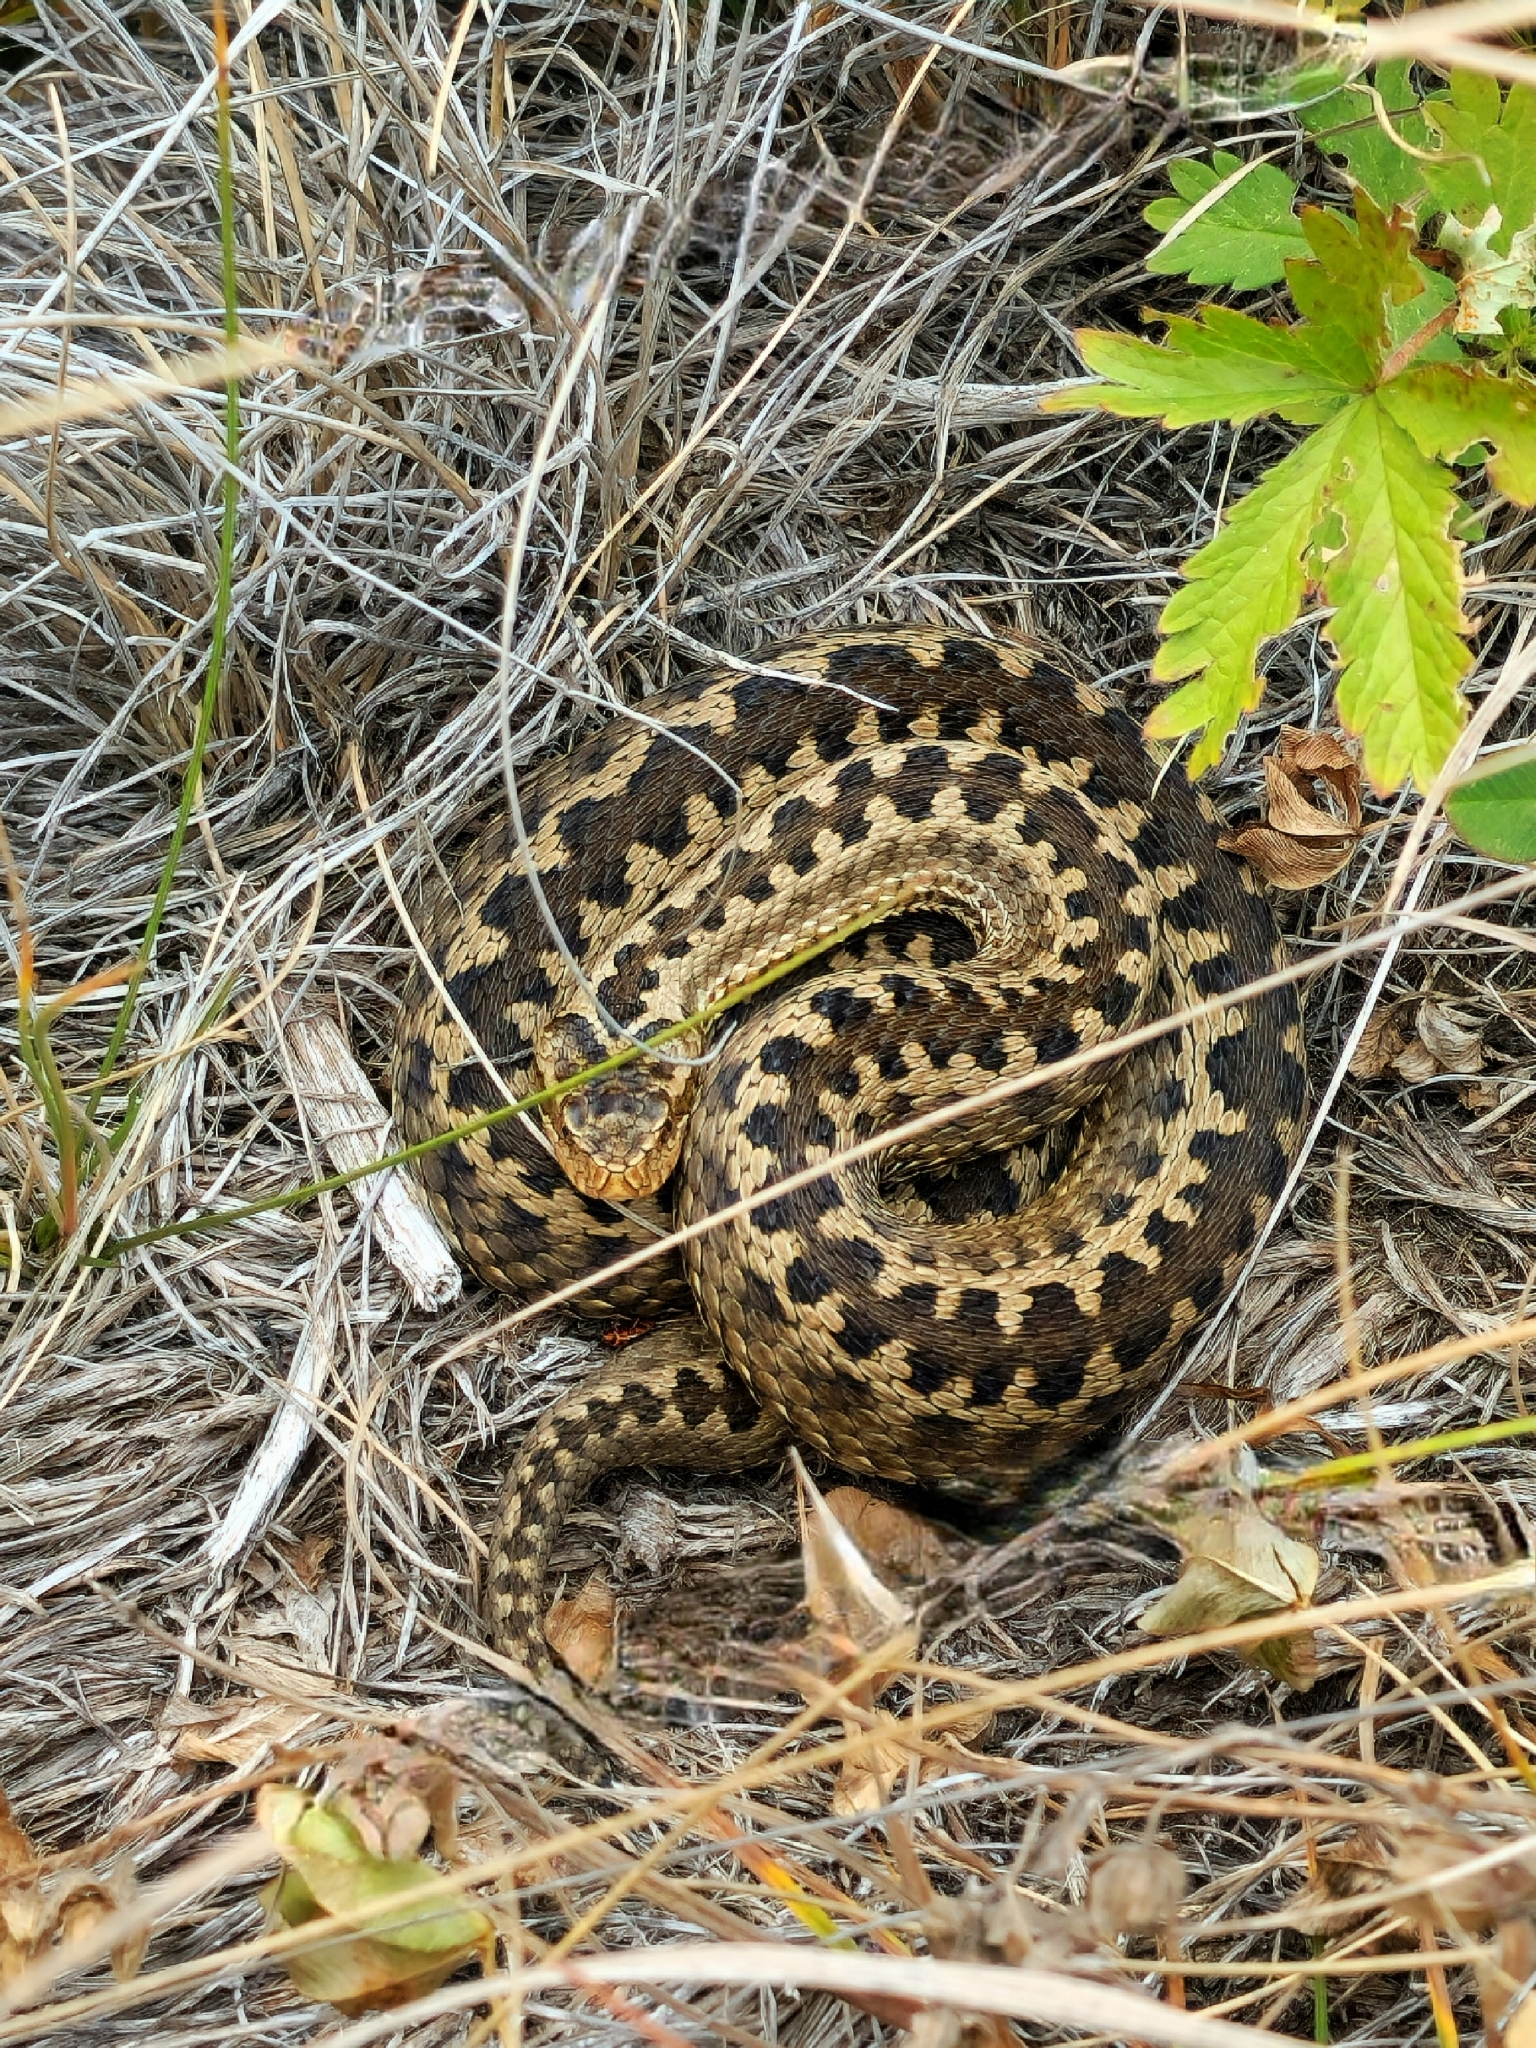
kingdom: Animalia
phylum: Chordata
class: Squamata
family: Viperidae
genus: Vipera
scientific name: Vipera renardi
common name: Eastern steppe viper
